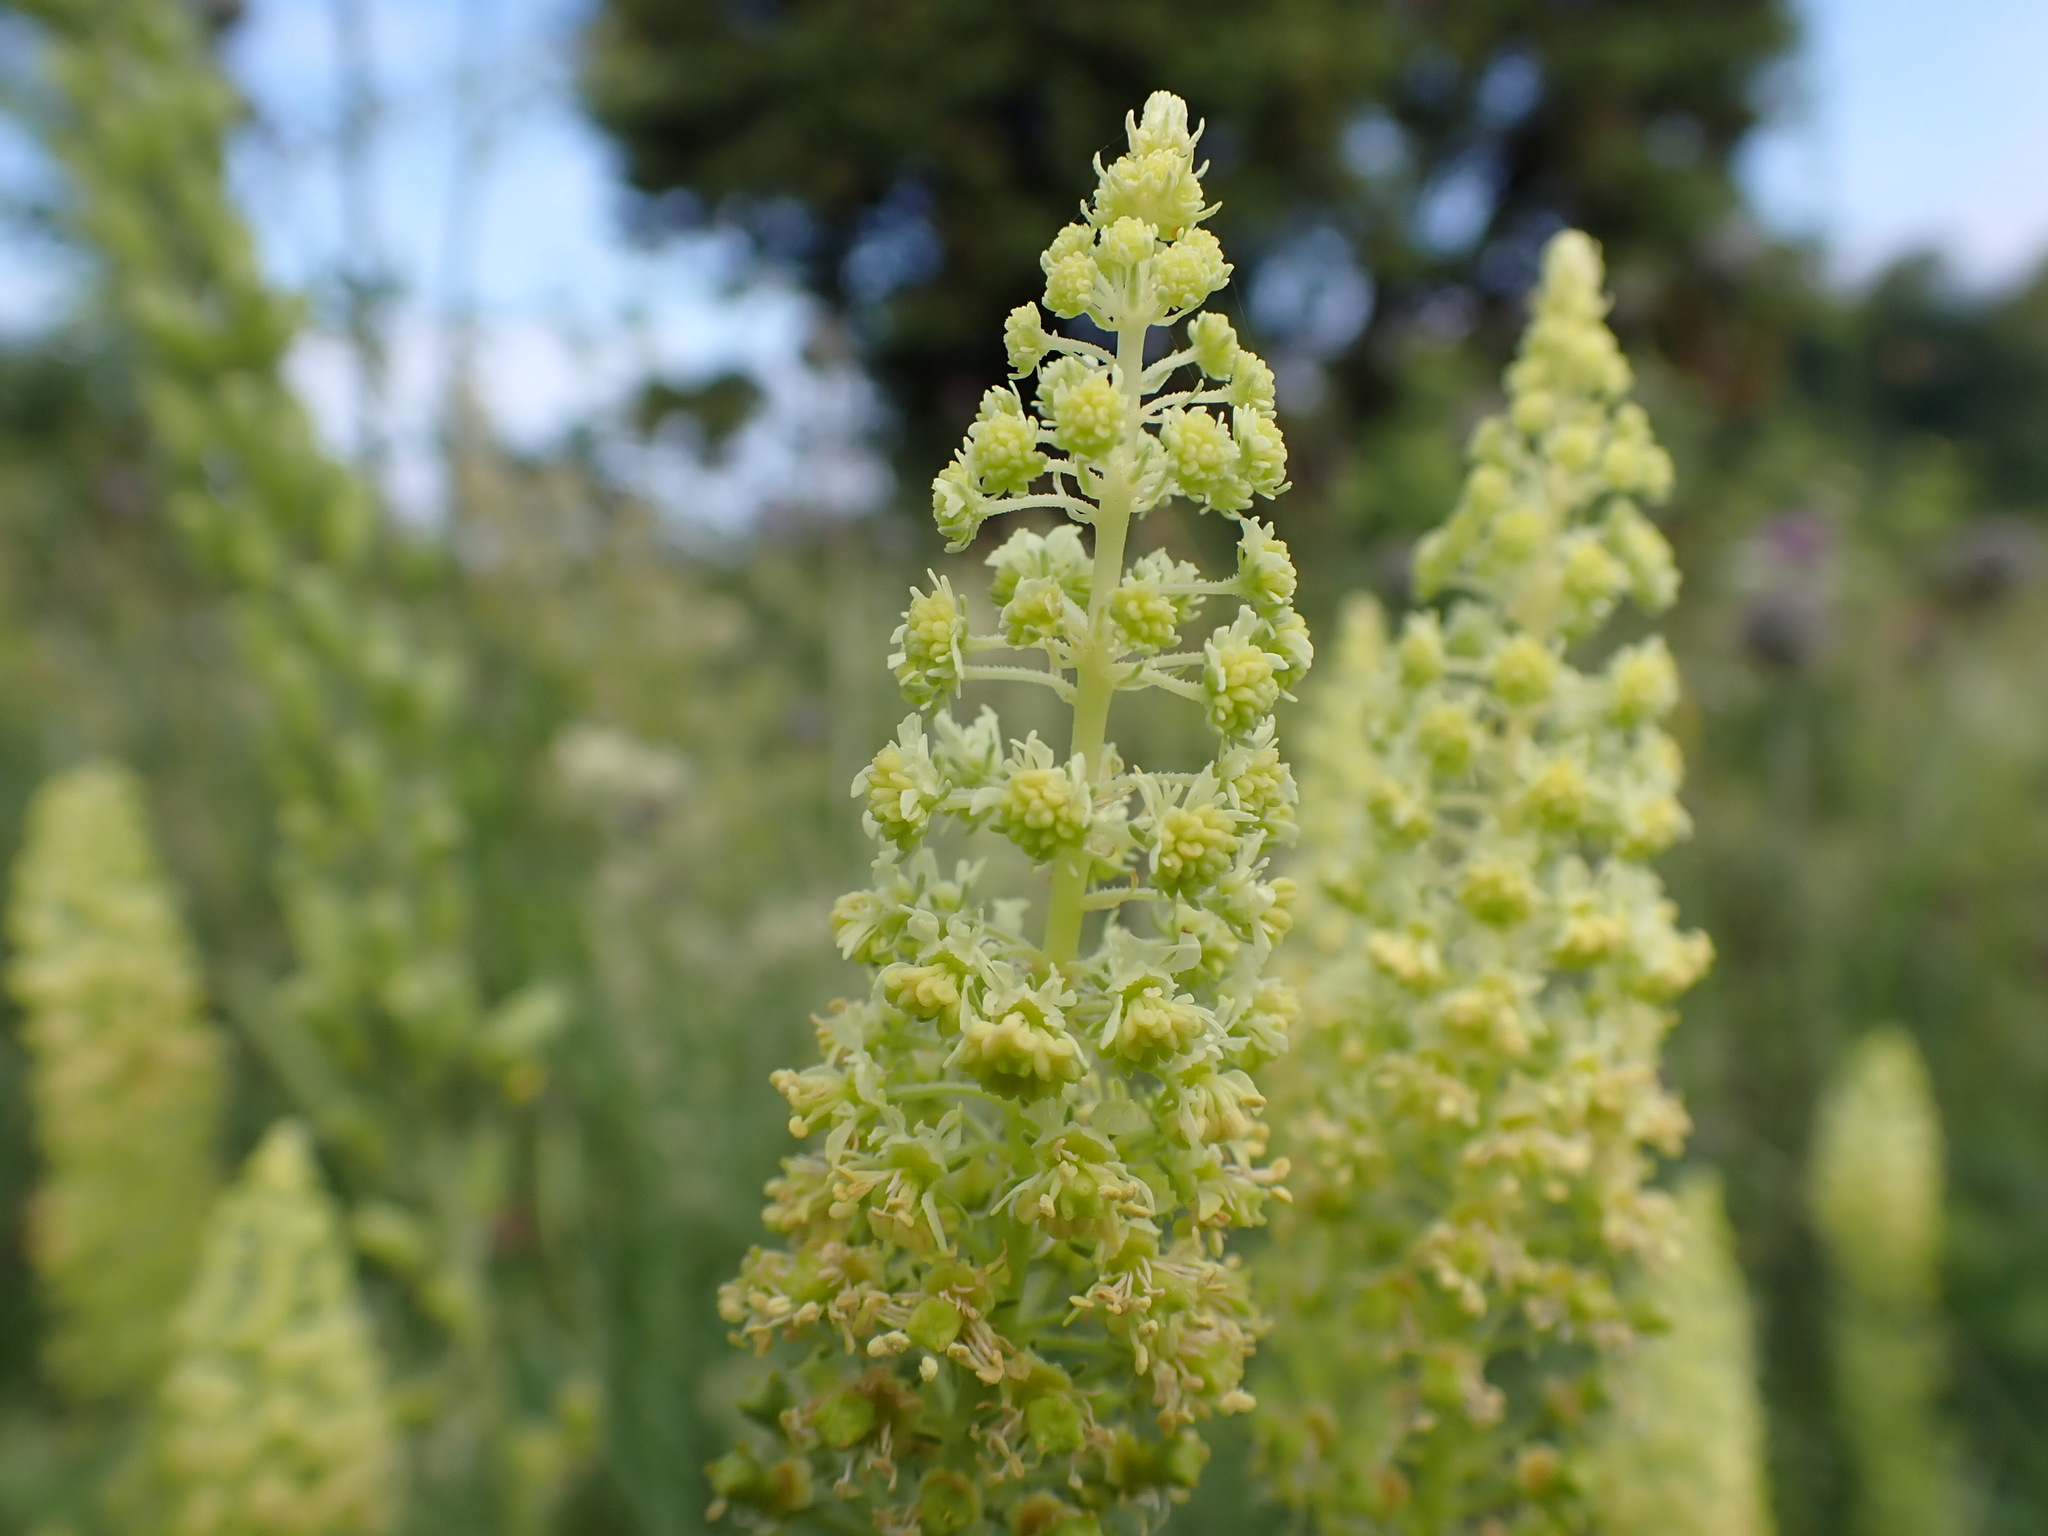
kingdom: Plantae
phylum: Tracheophyta
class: Magnoliopsida
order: Brassicales
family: Resedaceae
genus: Reseda
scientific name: Reseda lutea
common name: Wild mignonette
